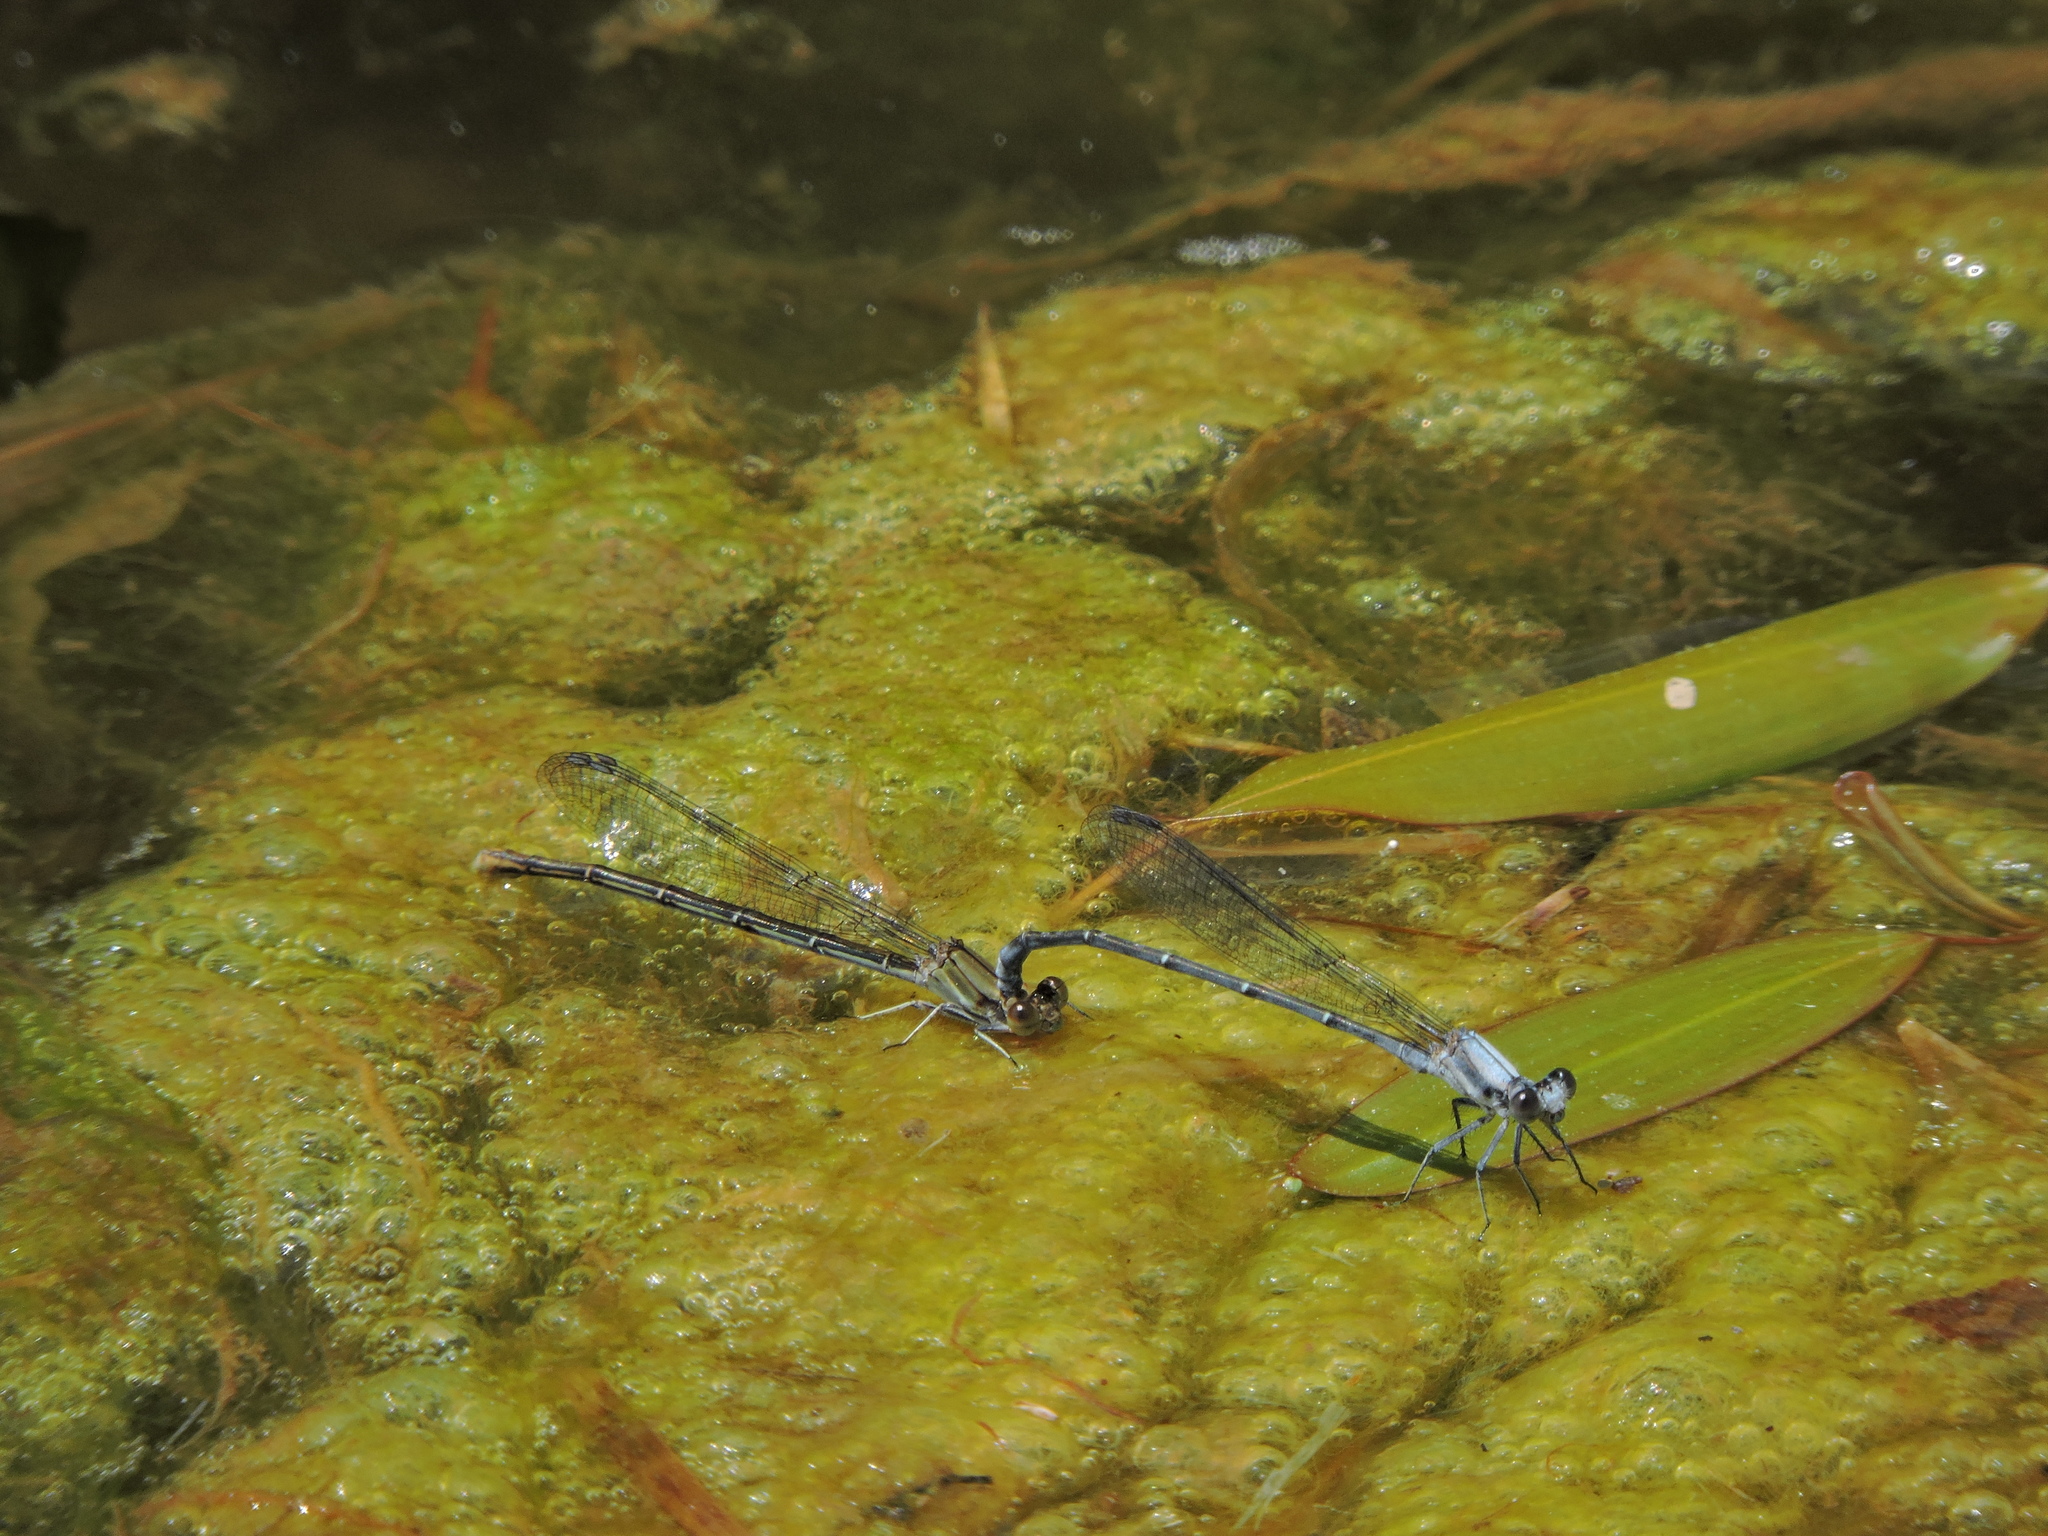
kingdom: Animalia
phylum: Arthropoda
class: Insecta
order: Odonata
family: Coenagrionidae
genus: Argia
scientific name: Argia moesta
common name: Powdered dancer
